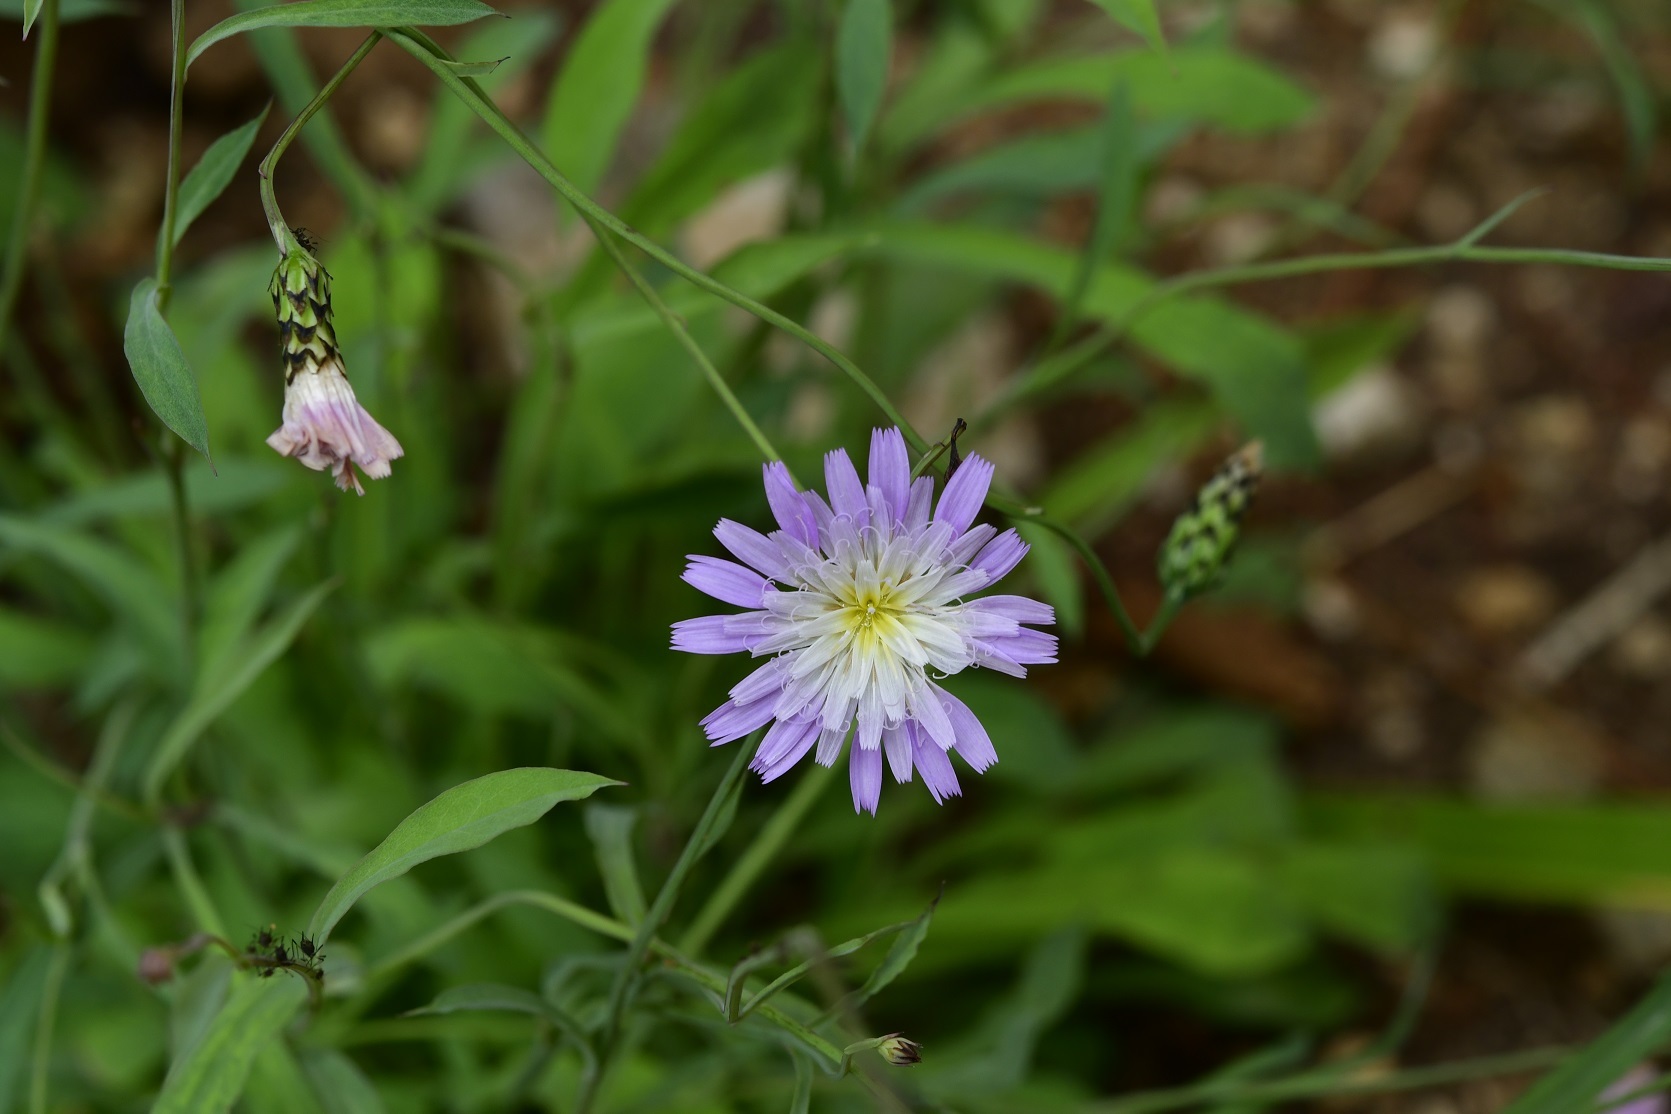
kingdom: Plantae
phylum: Tracheophyta
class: Magnoliopsida
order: Asterales
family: Asteraceae
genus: Pinaropappus
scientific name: Pinaropappus spathulatus
